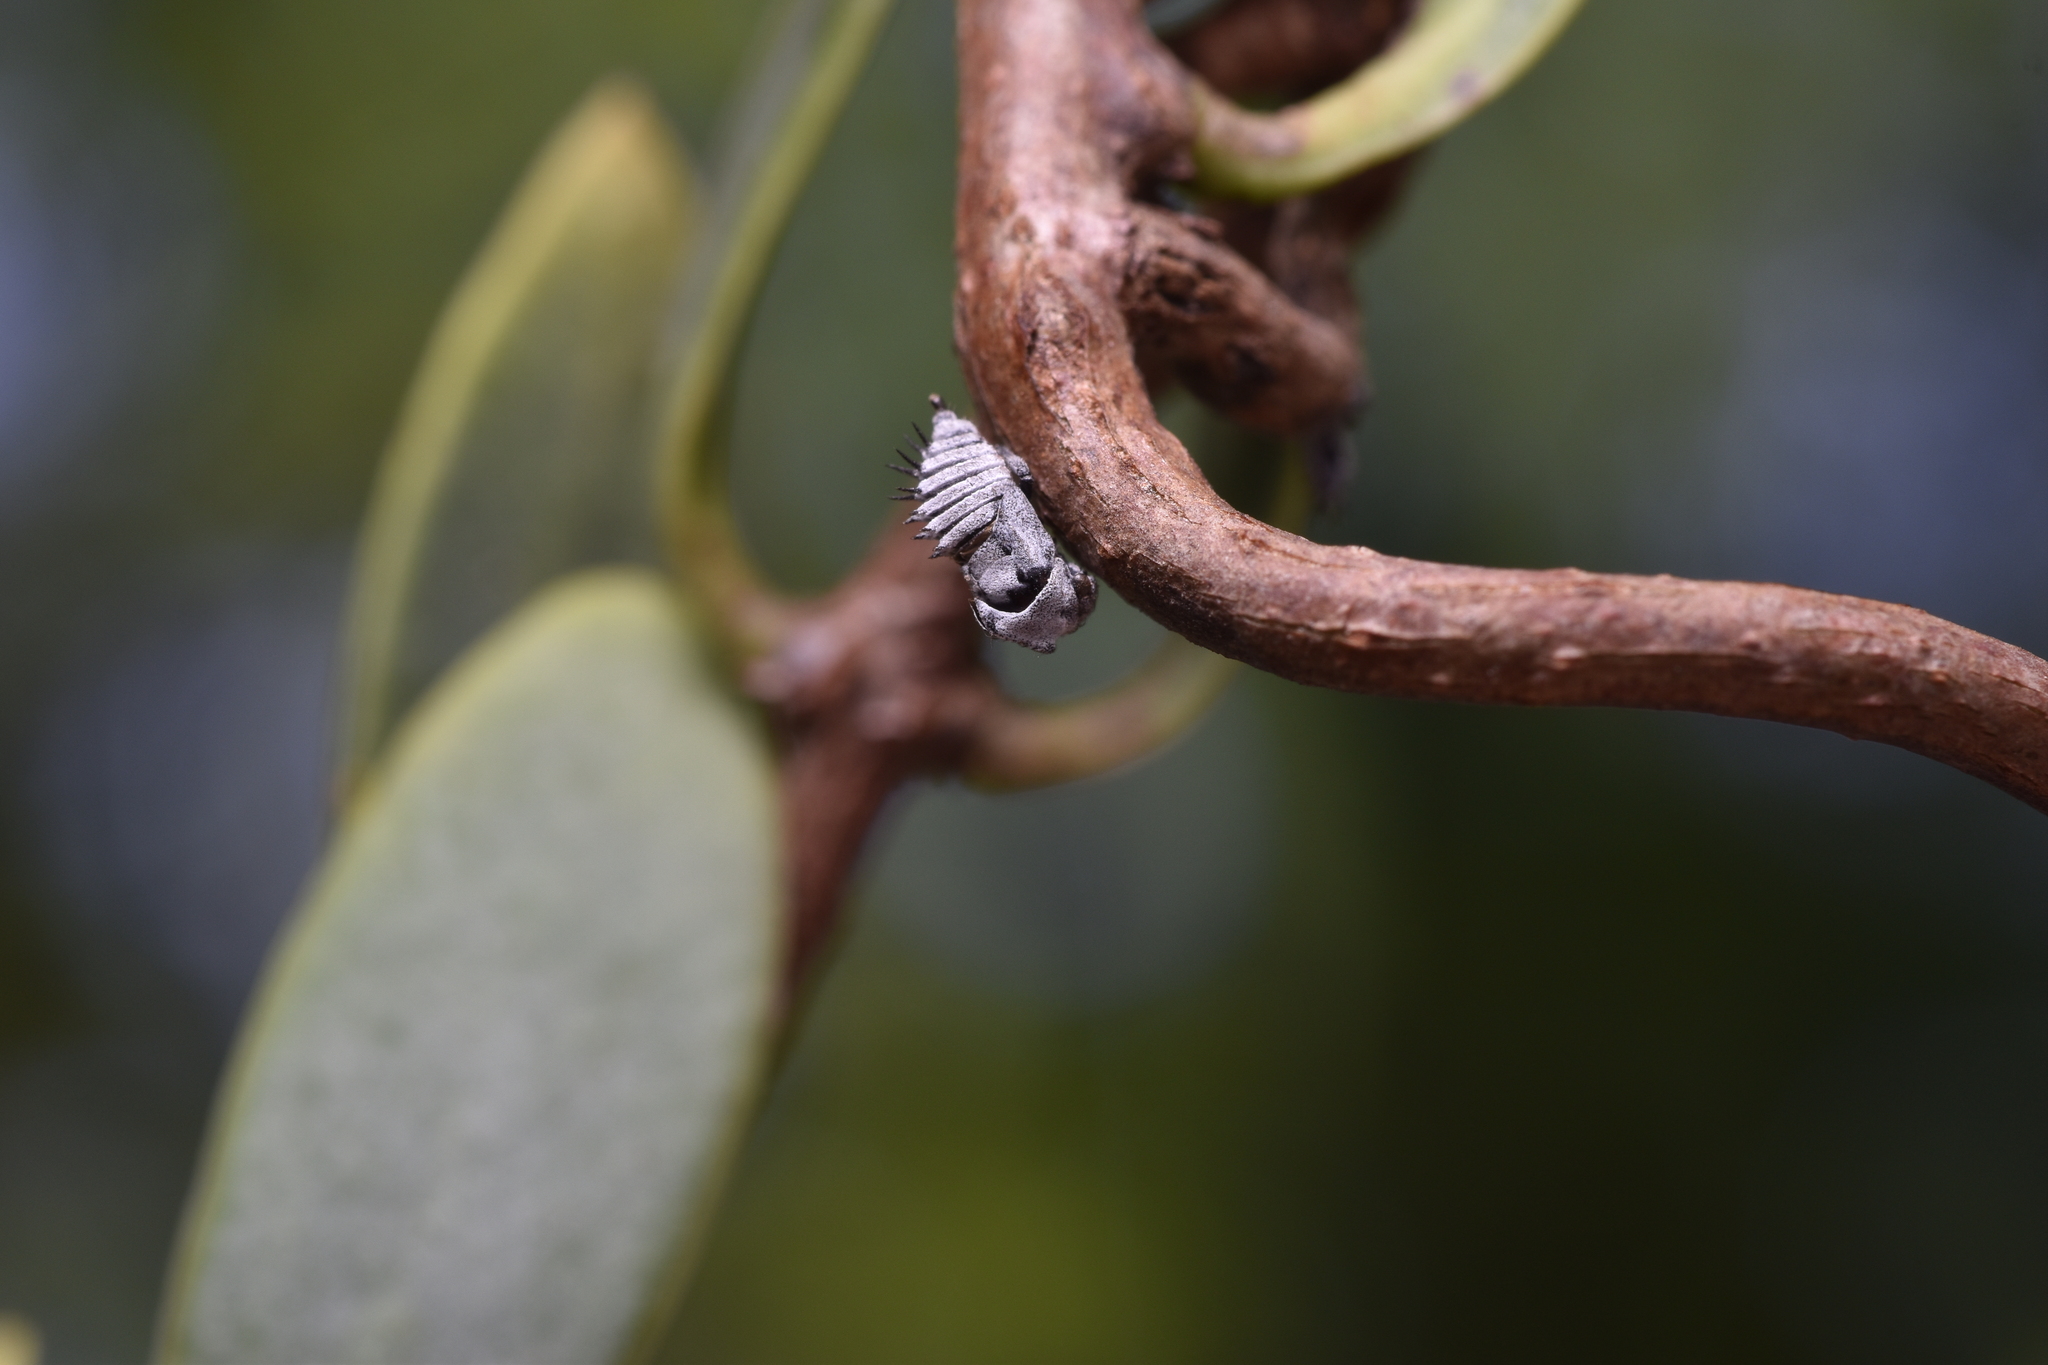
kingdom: Animalia
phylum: Arthropoda
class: Insecta
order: Hemiptera
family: Membracidae
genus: Membracis
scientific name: Membracis mexicana
